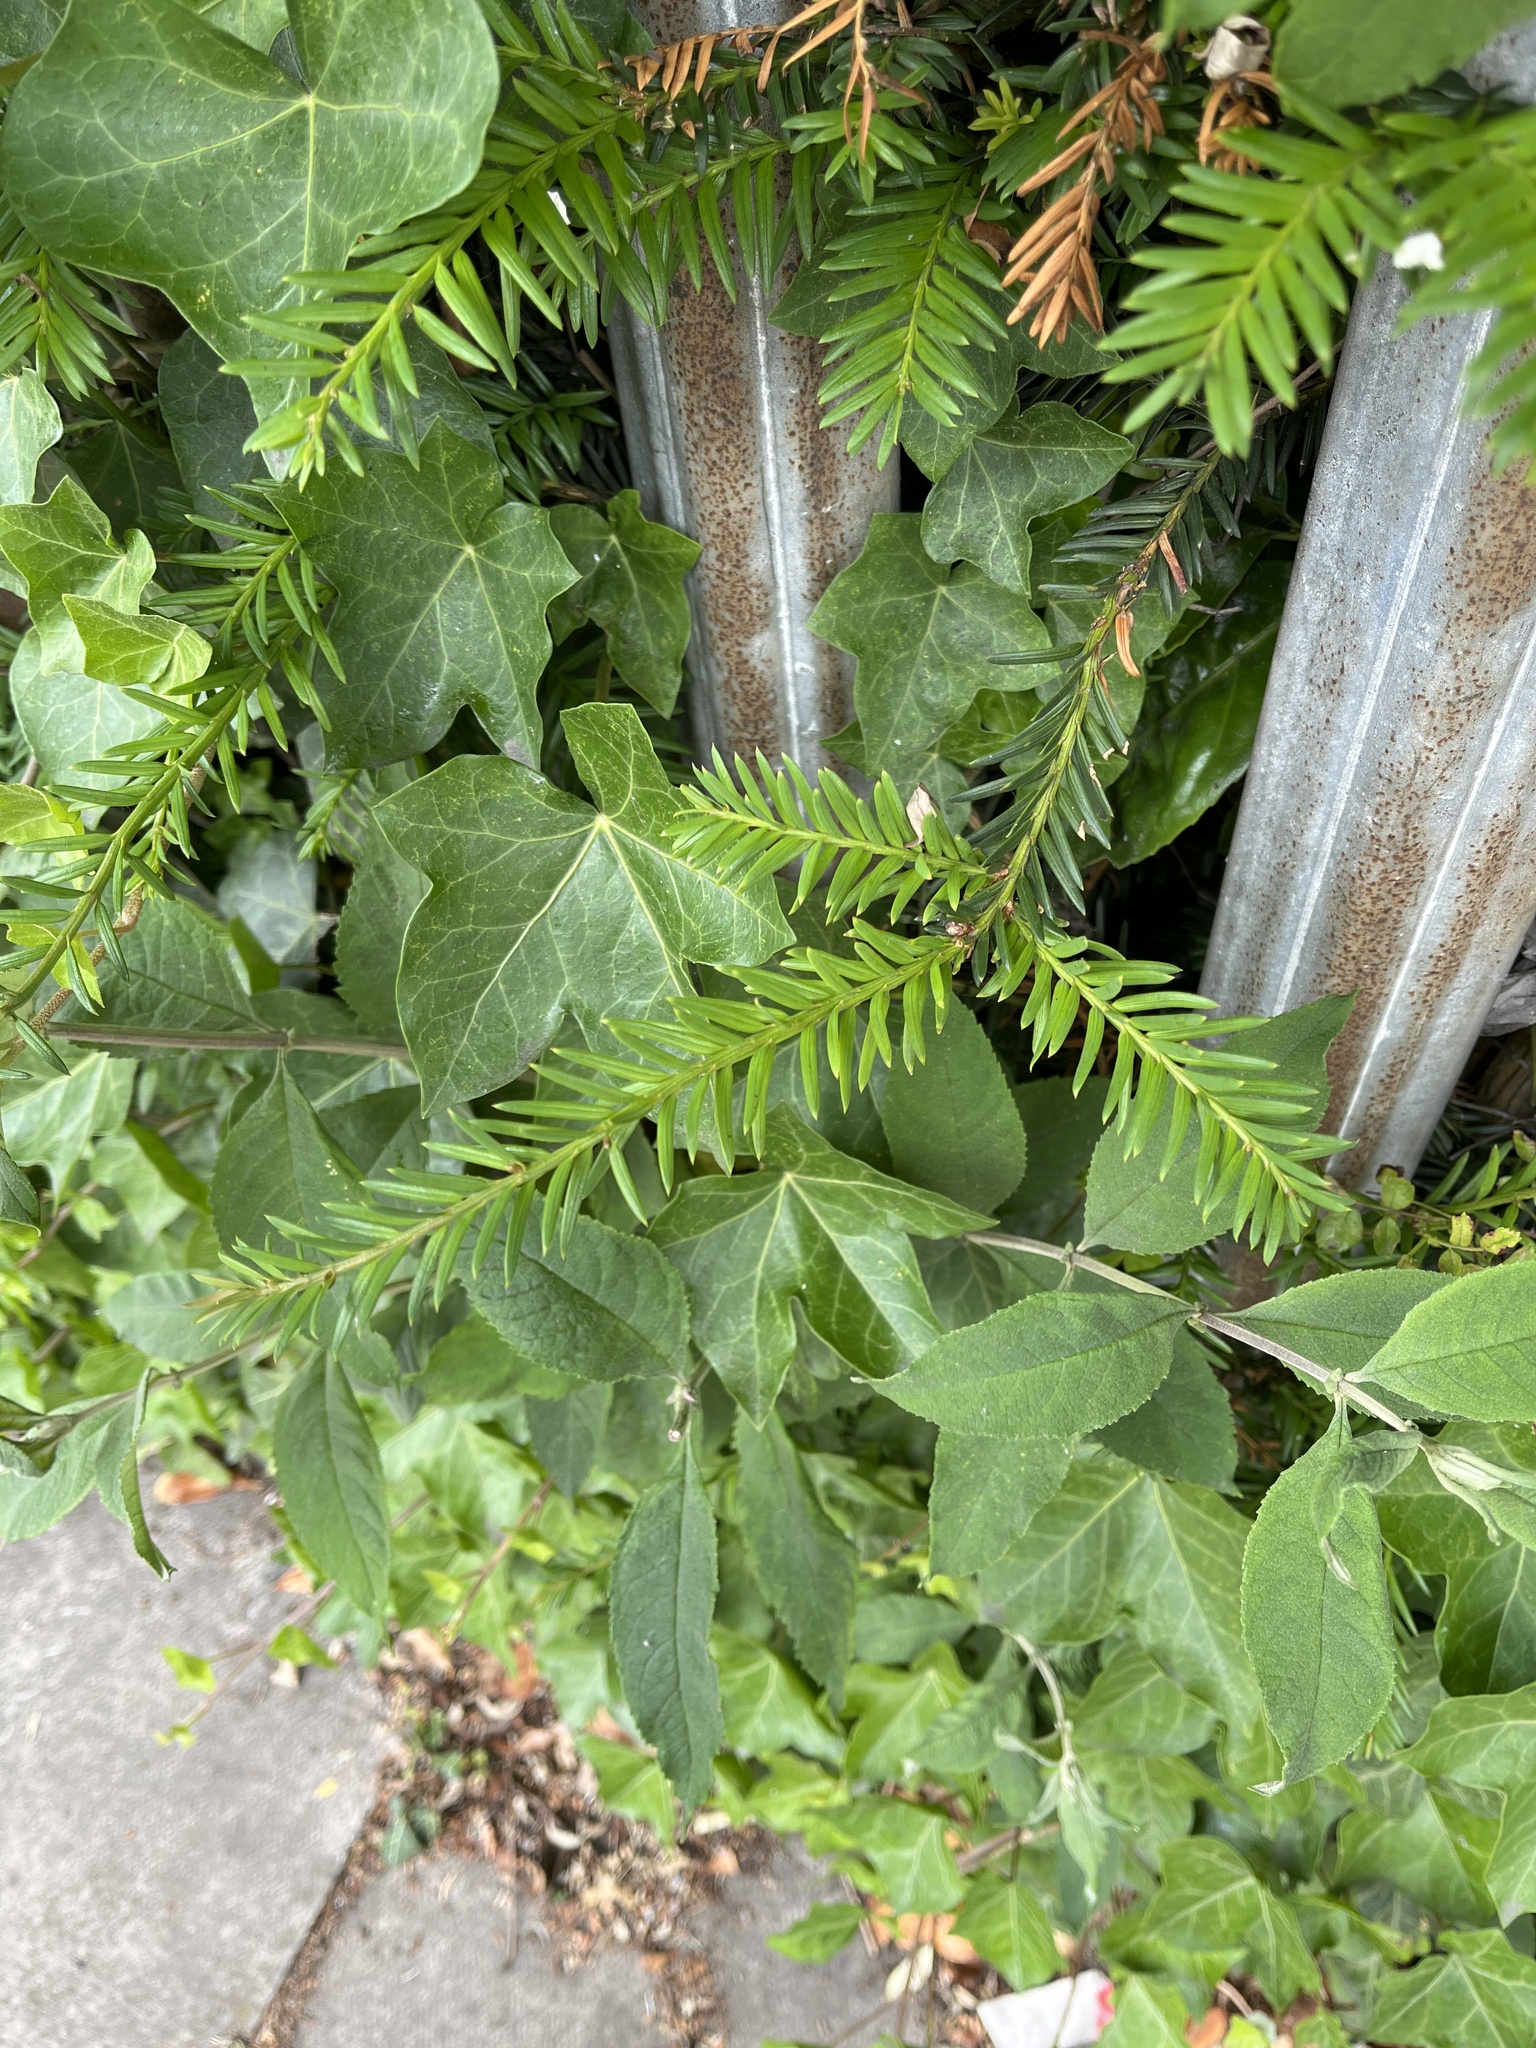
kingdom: Plantae
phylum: Tracheophyta
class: Pinopsida
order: Pinales
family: Taxaceae
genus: Taxus
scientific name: Taxus baccata
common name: Yew
